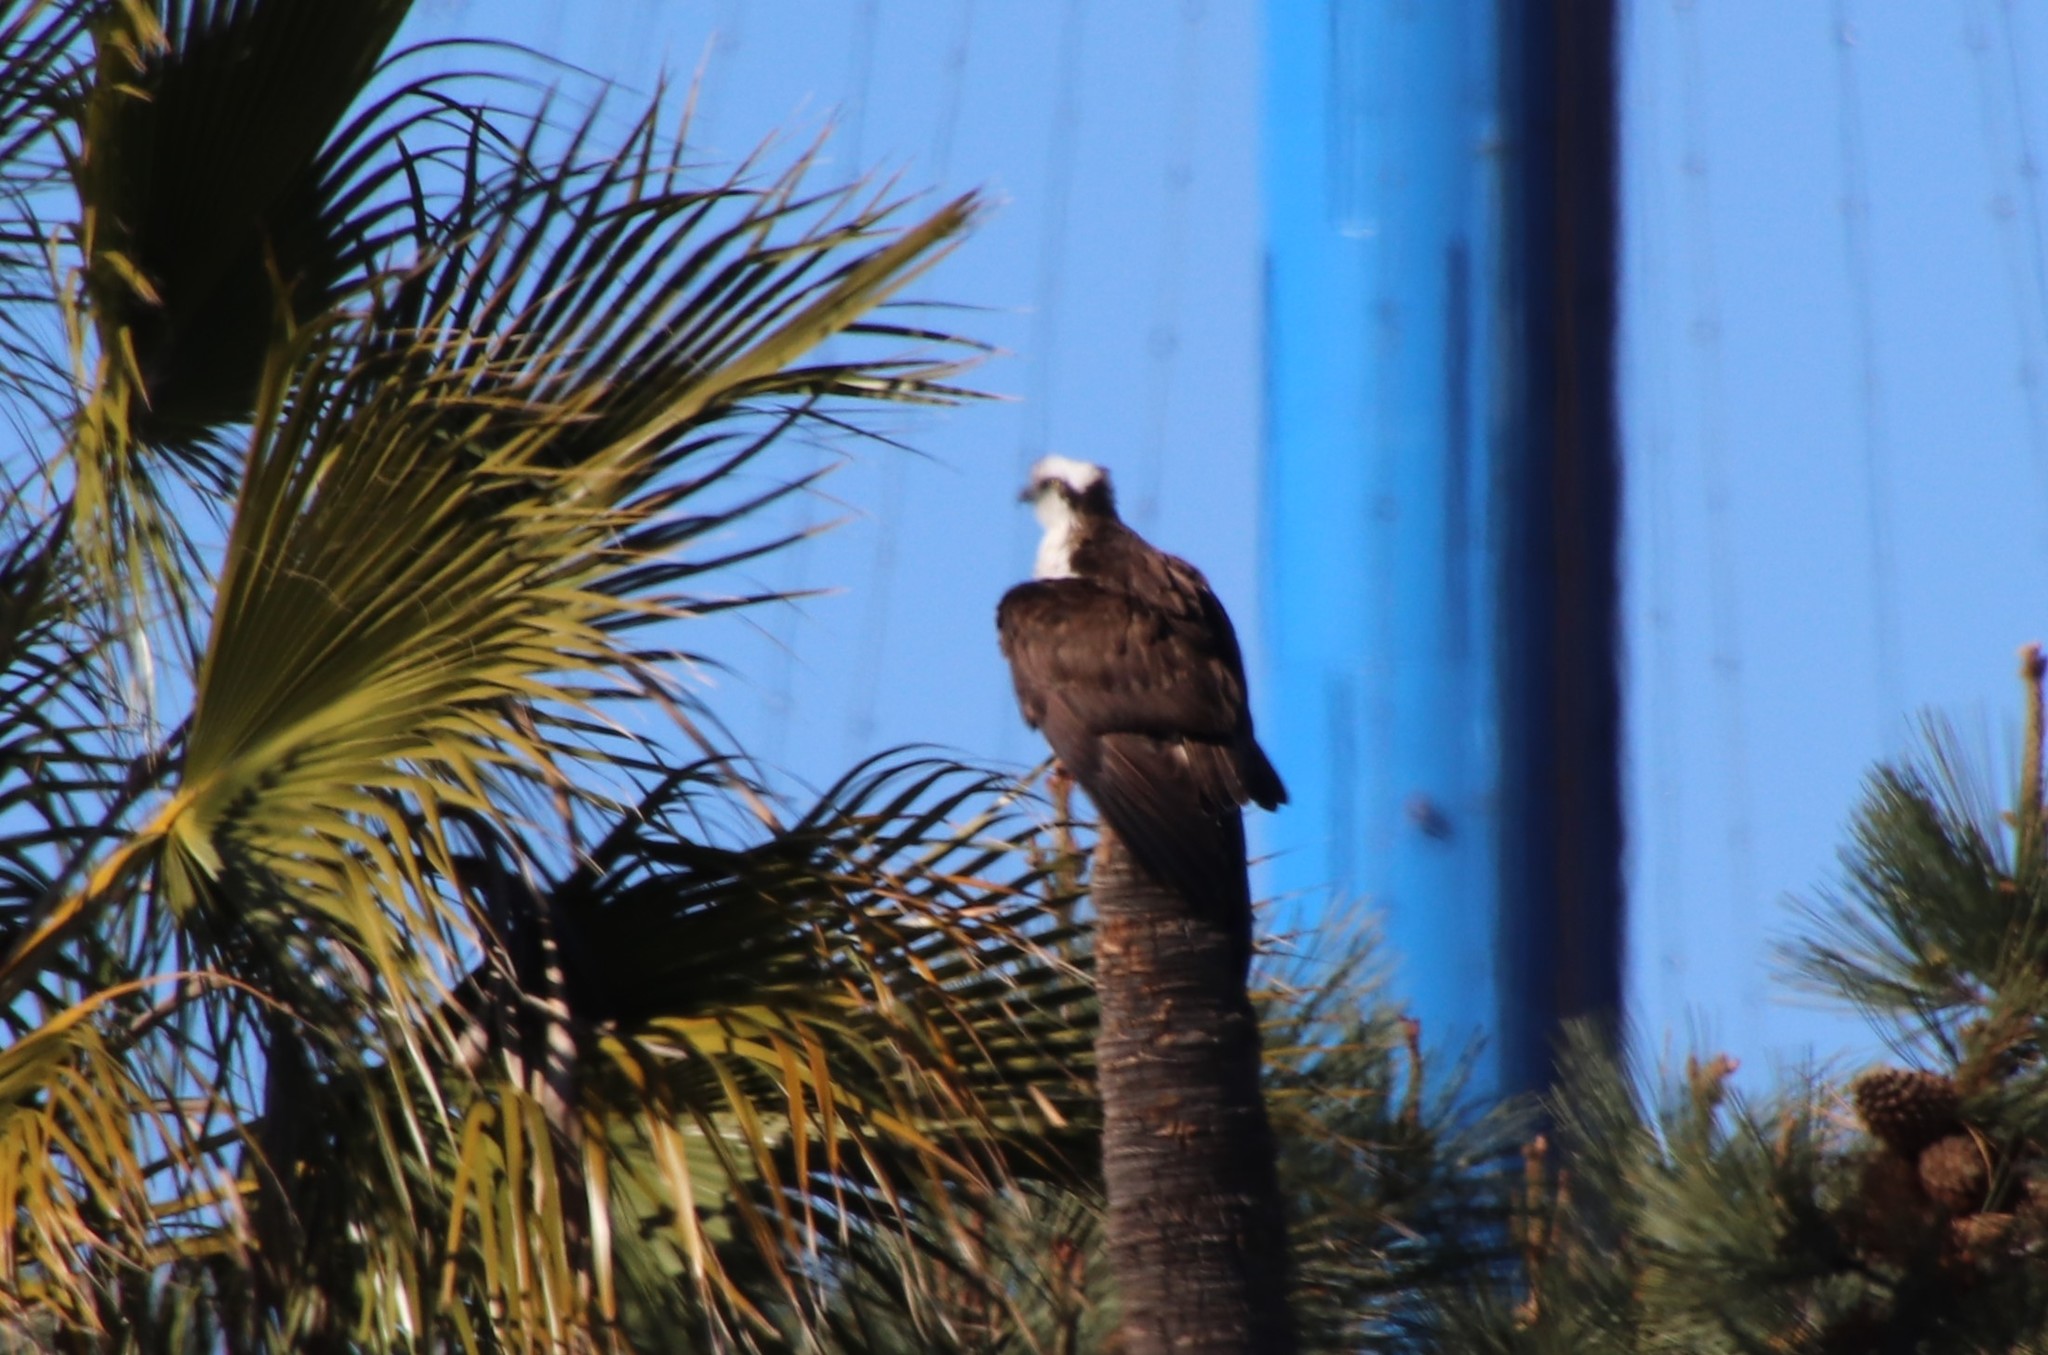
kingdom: Animalia
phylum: Chordata
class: Aves
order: Accipitriformes
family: Pandionidae
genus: Pandion
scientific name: Pandion haliaetus
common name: Osprey
